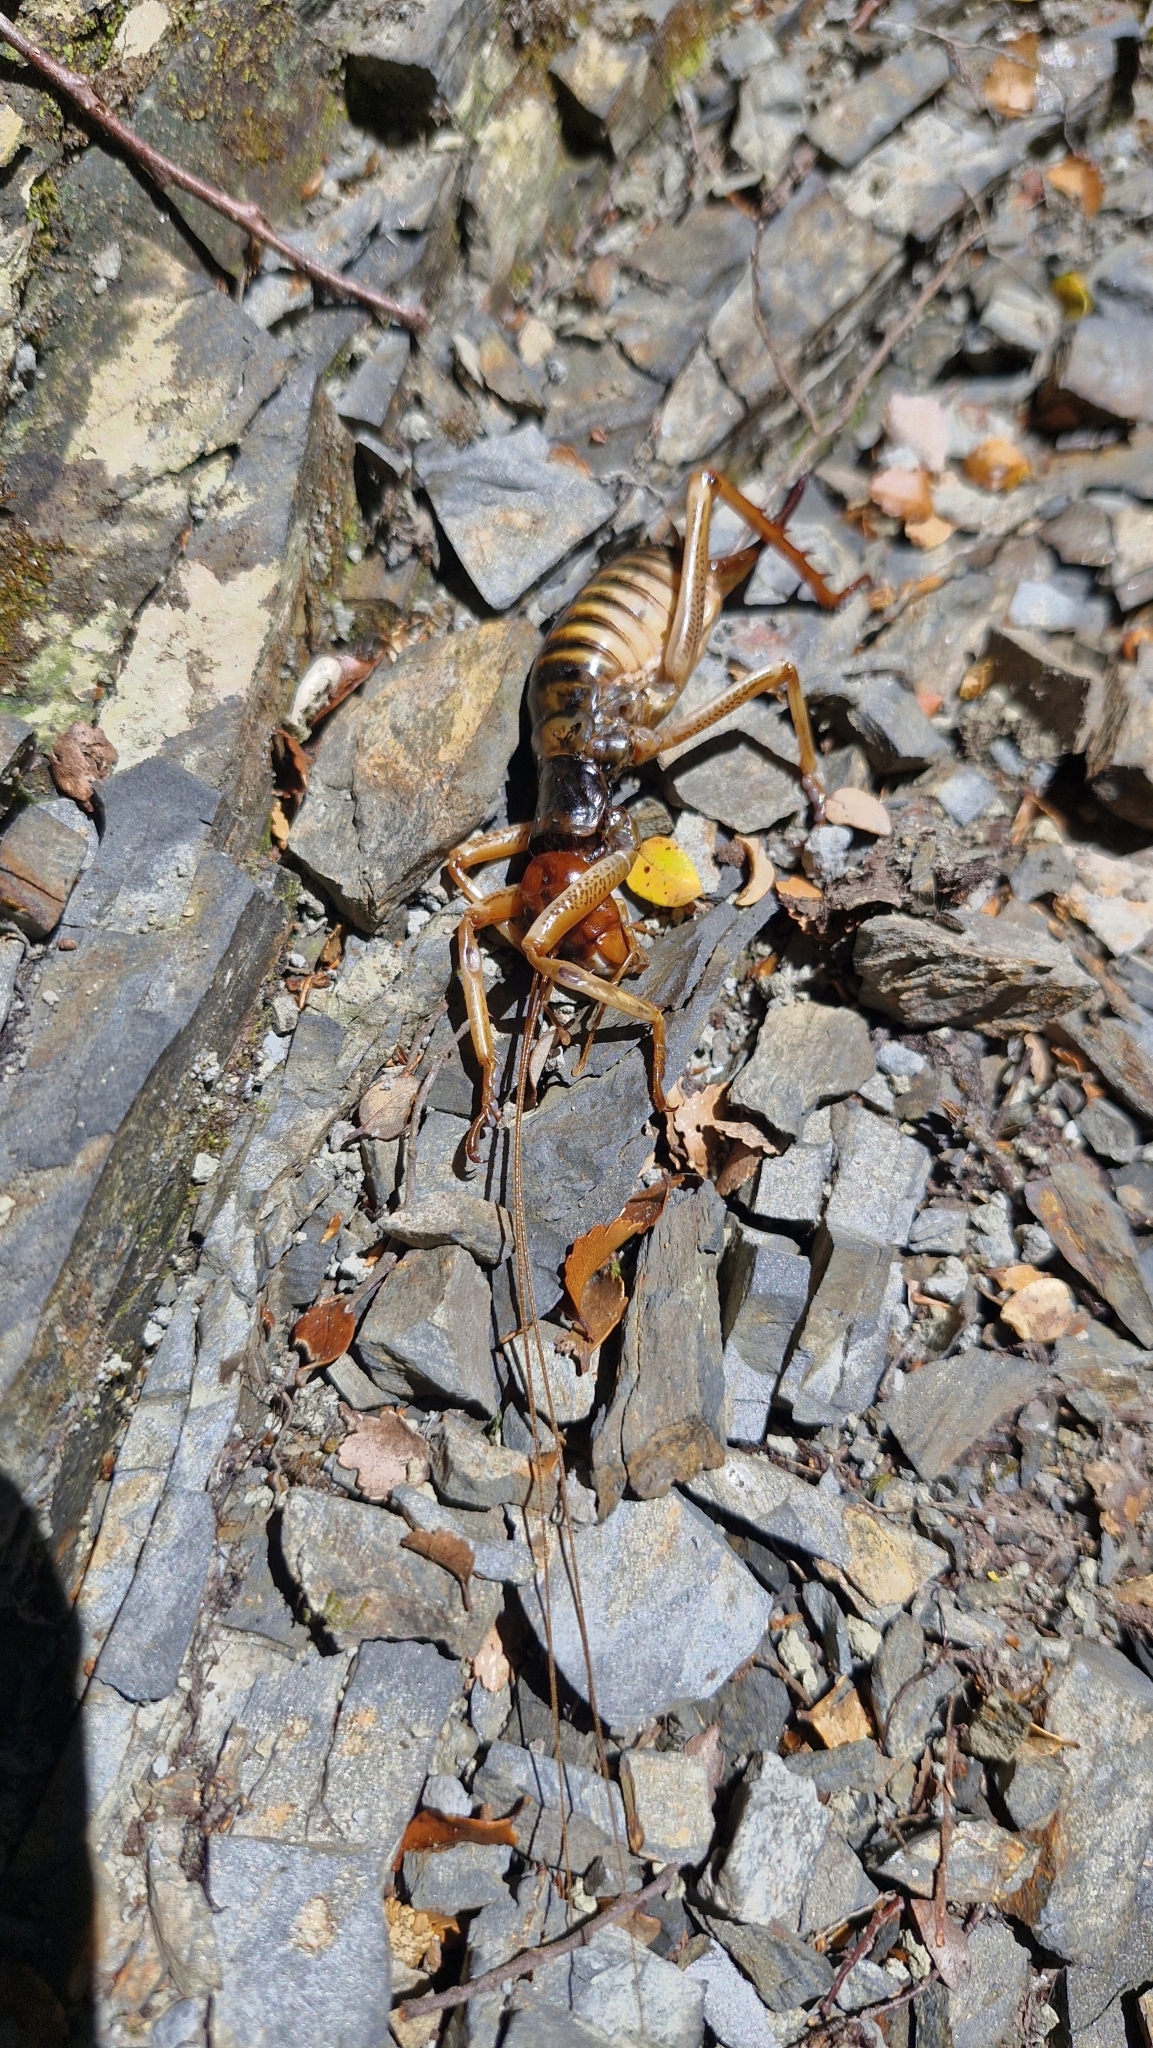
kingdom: Animalia
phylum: Arthropoda
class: Insecta
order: Orthoptera
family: Anostostomatidae
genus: Hemideina
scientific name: Hemideina crassidens
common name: Wellington tree weta
